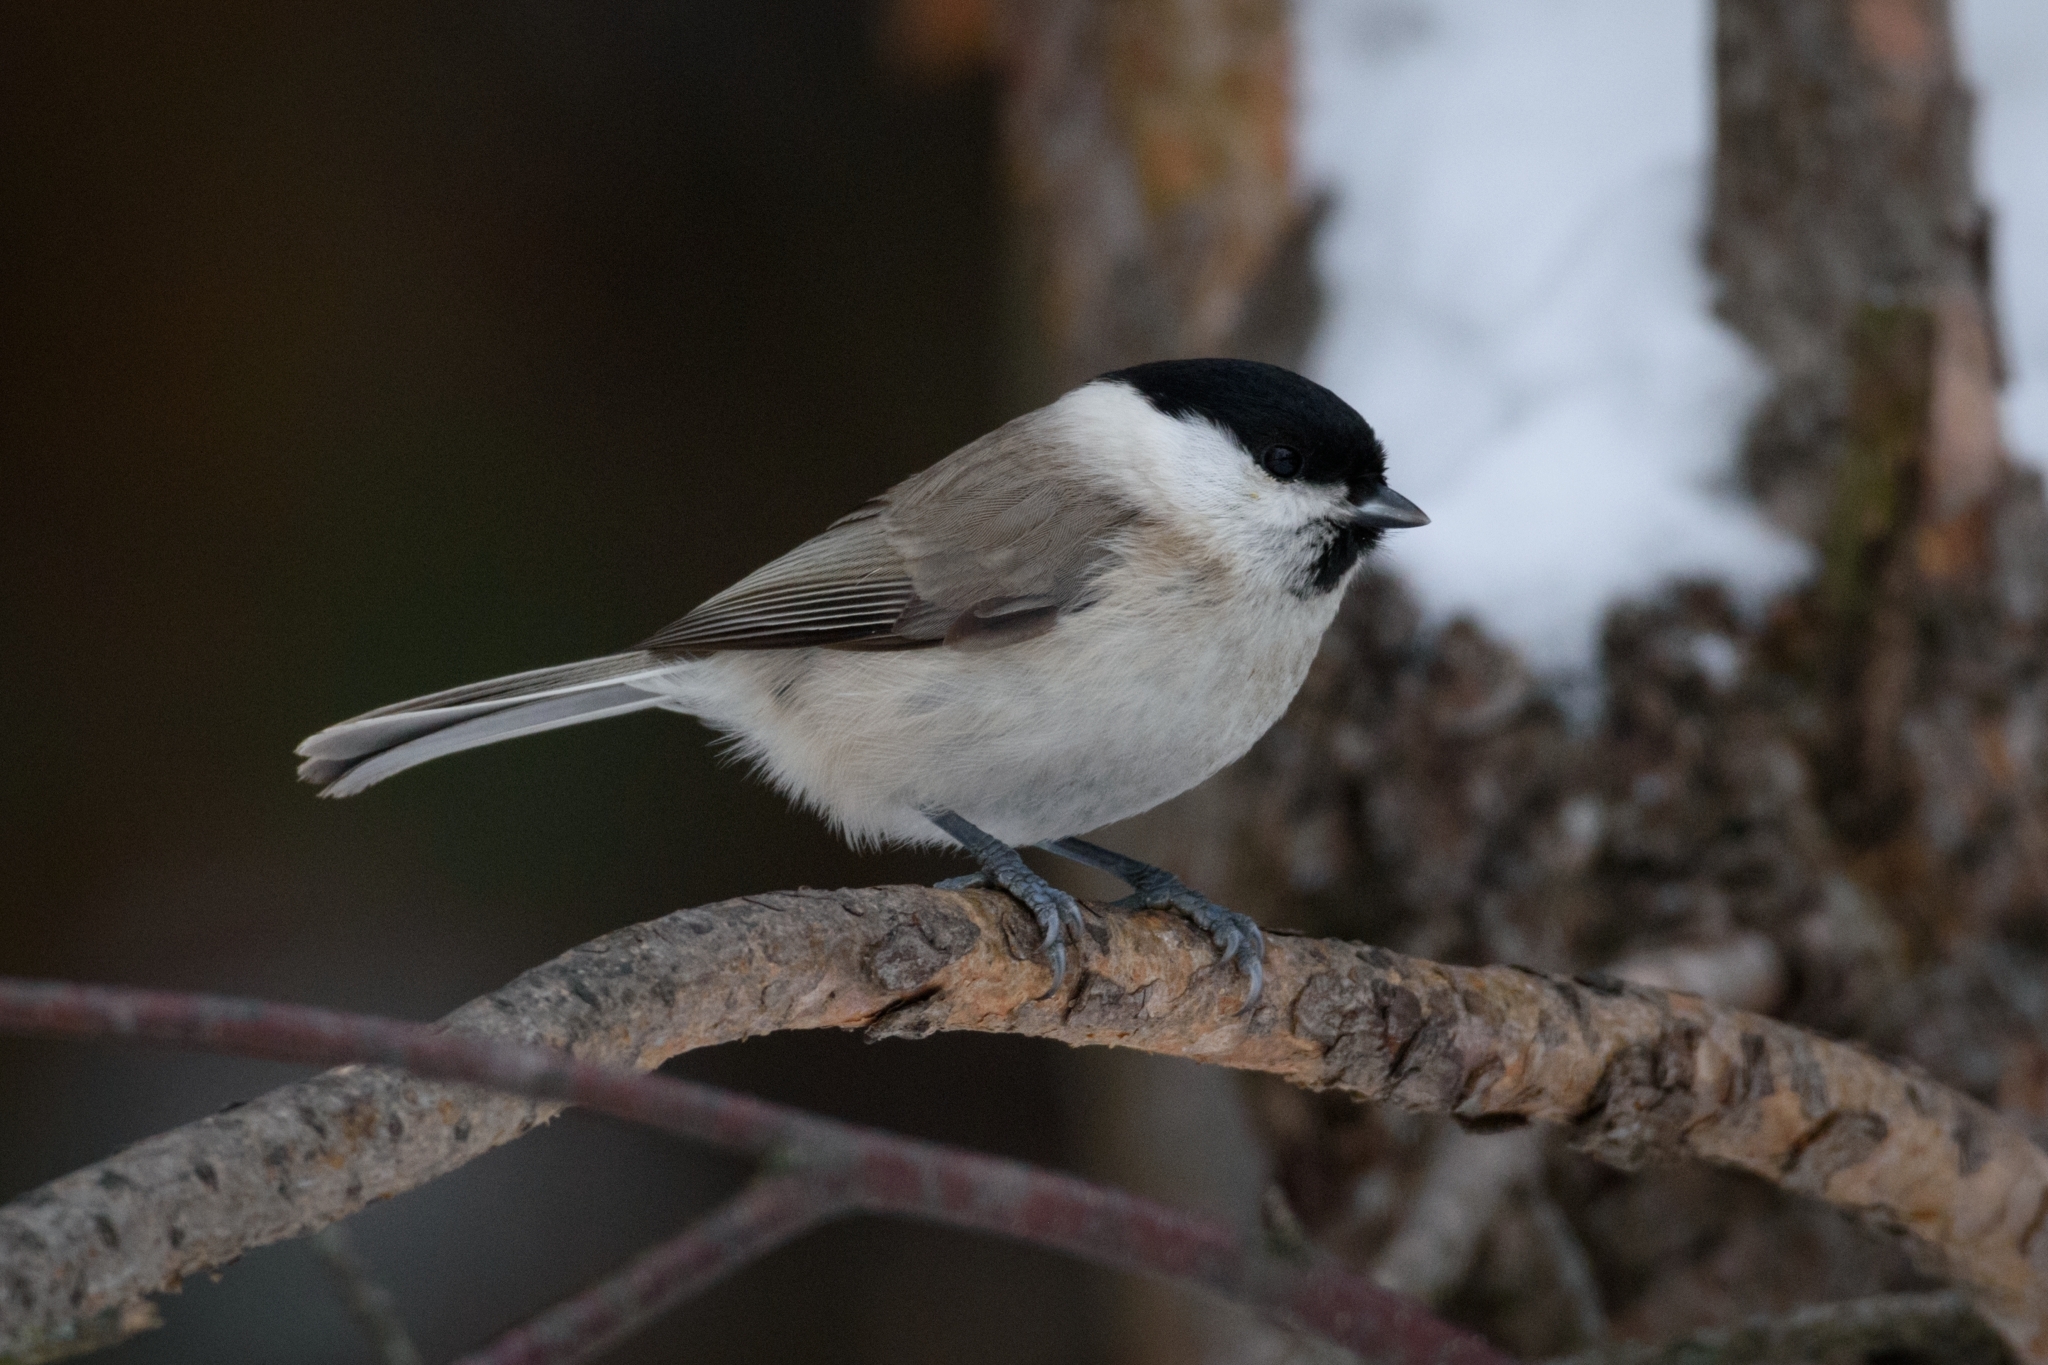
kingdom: Animalia
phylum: Chordata
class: Aves
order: Passeriformes
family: Paridae
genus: Poecile
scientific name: Poecile palustris
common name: Marsh tit
